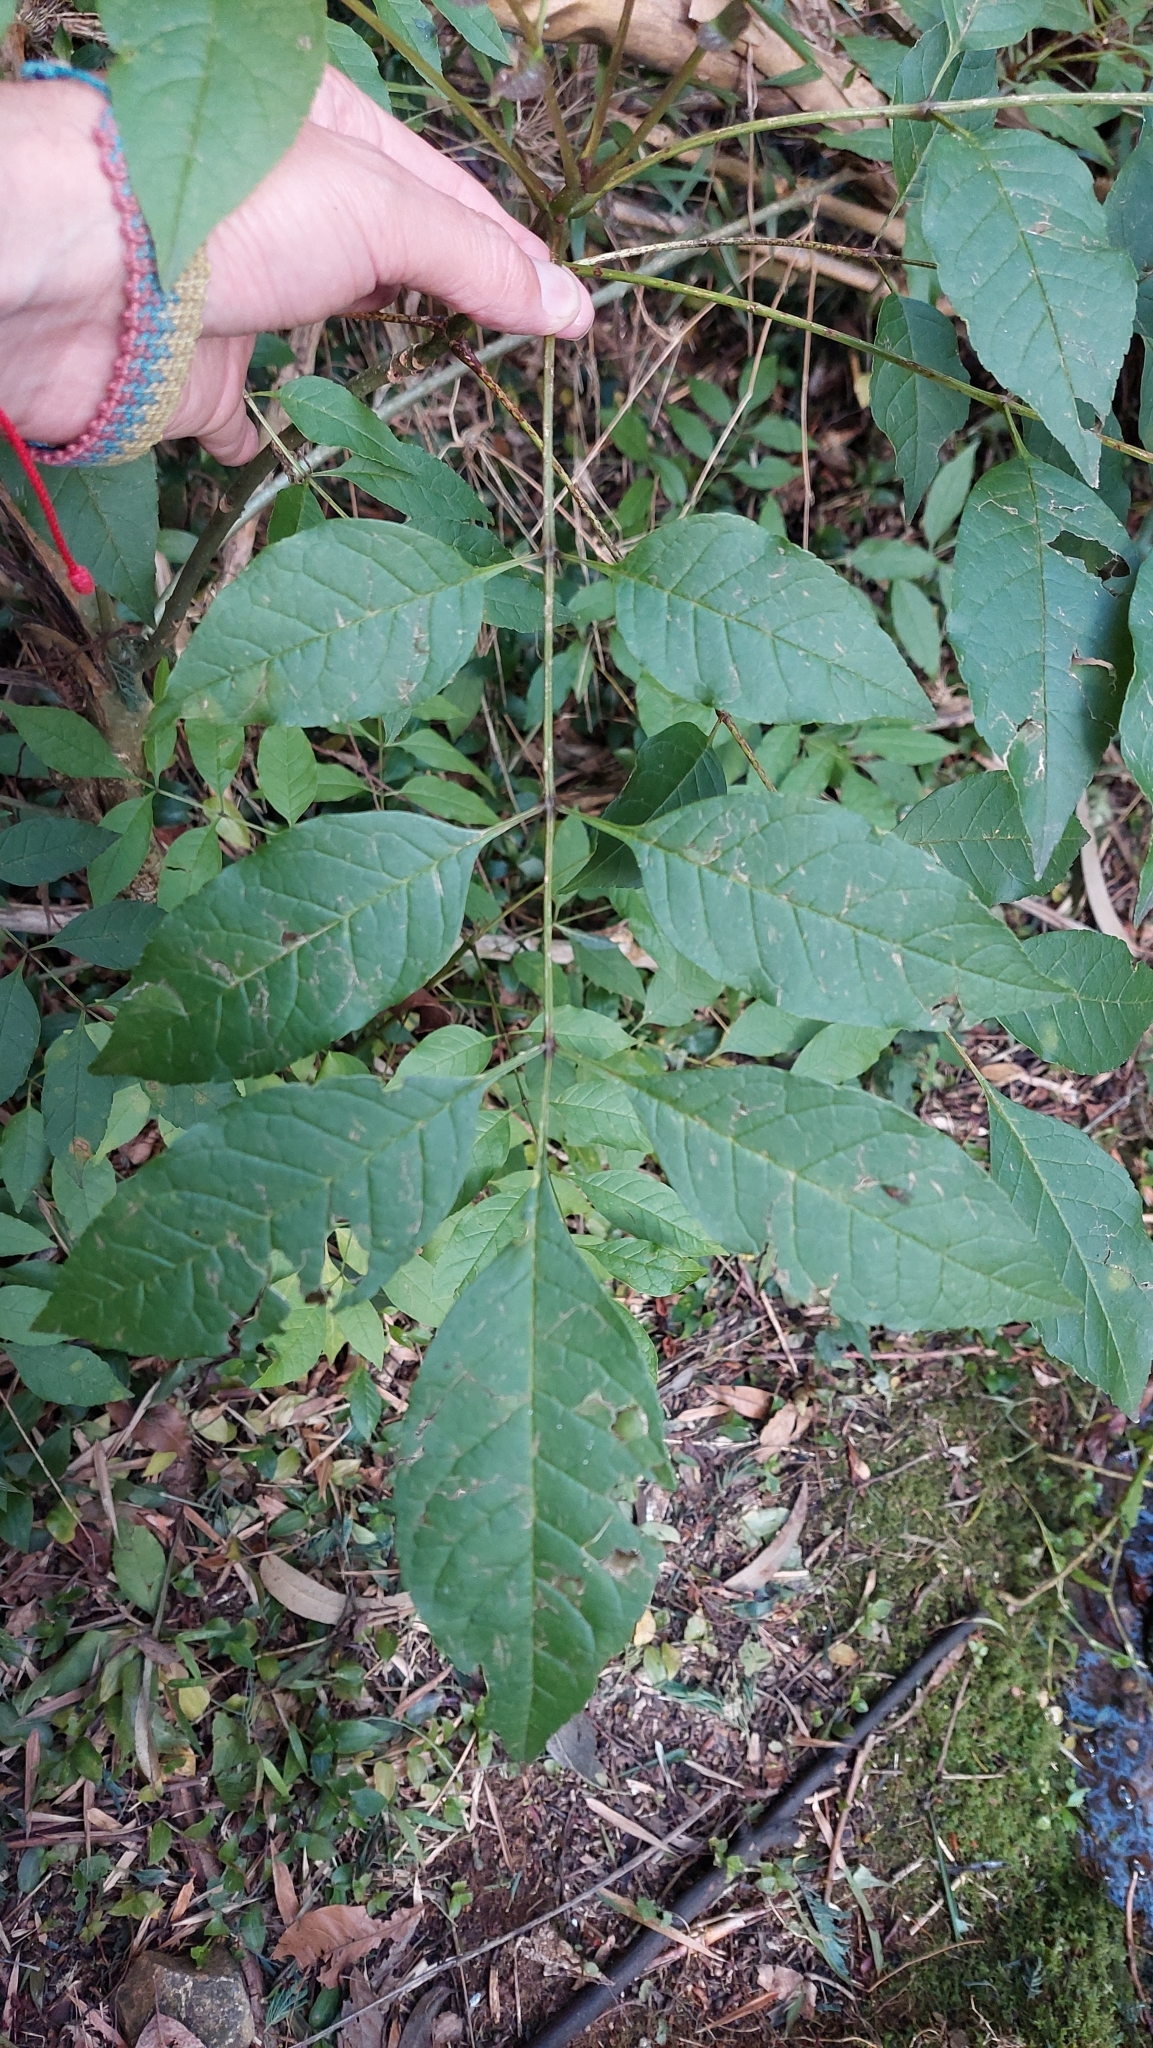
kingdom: Plantae
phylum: Tracheophyta
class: Magnoliopsida
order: Lamiales
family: Oleaceae
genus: Fraxinus
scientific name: Fraxinus uhdei
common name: Shamel ash
